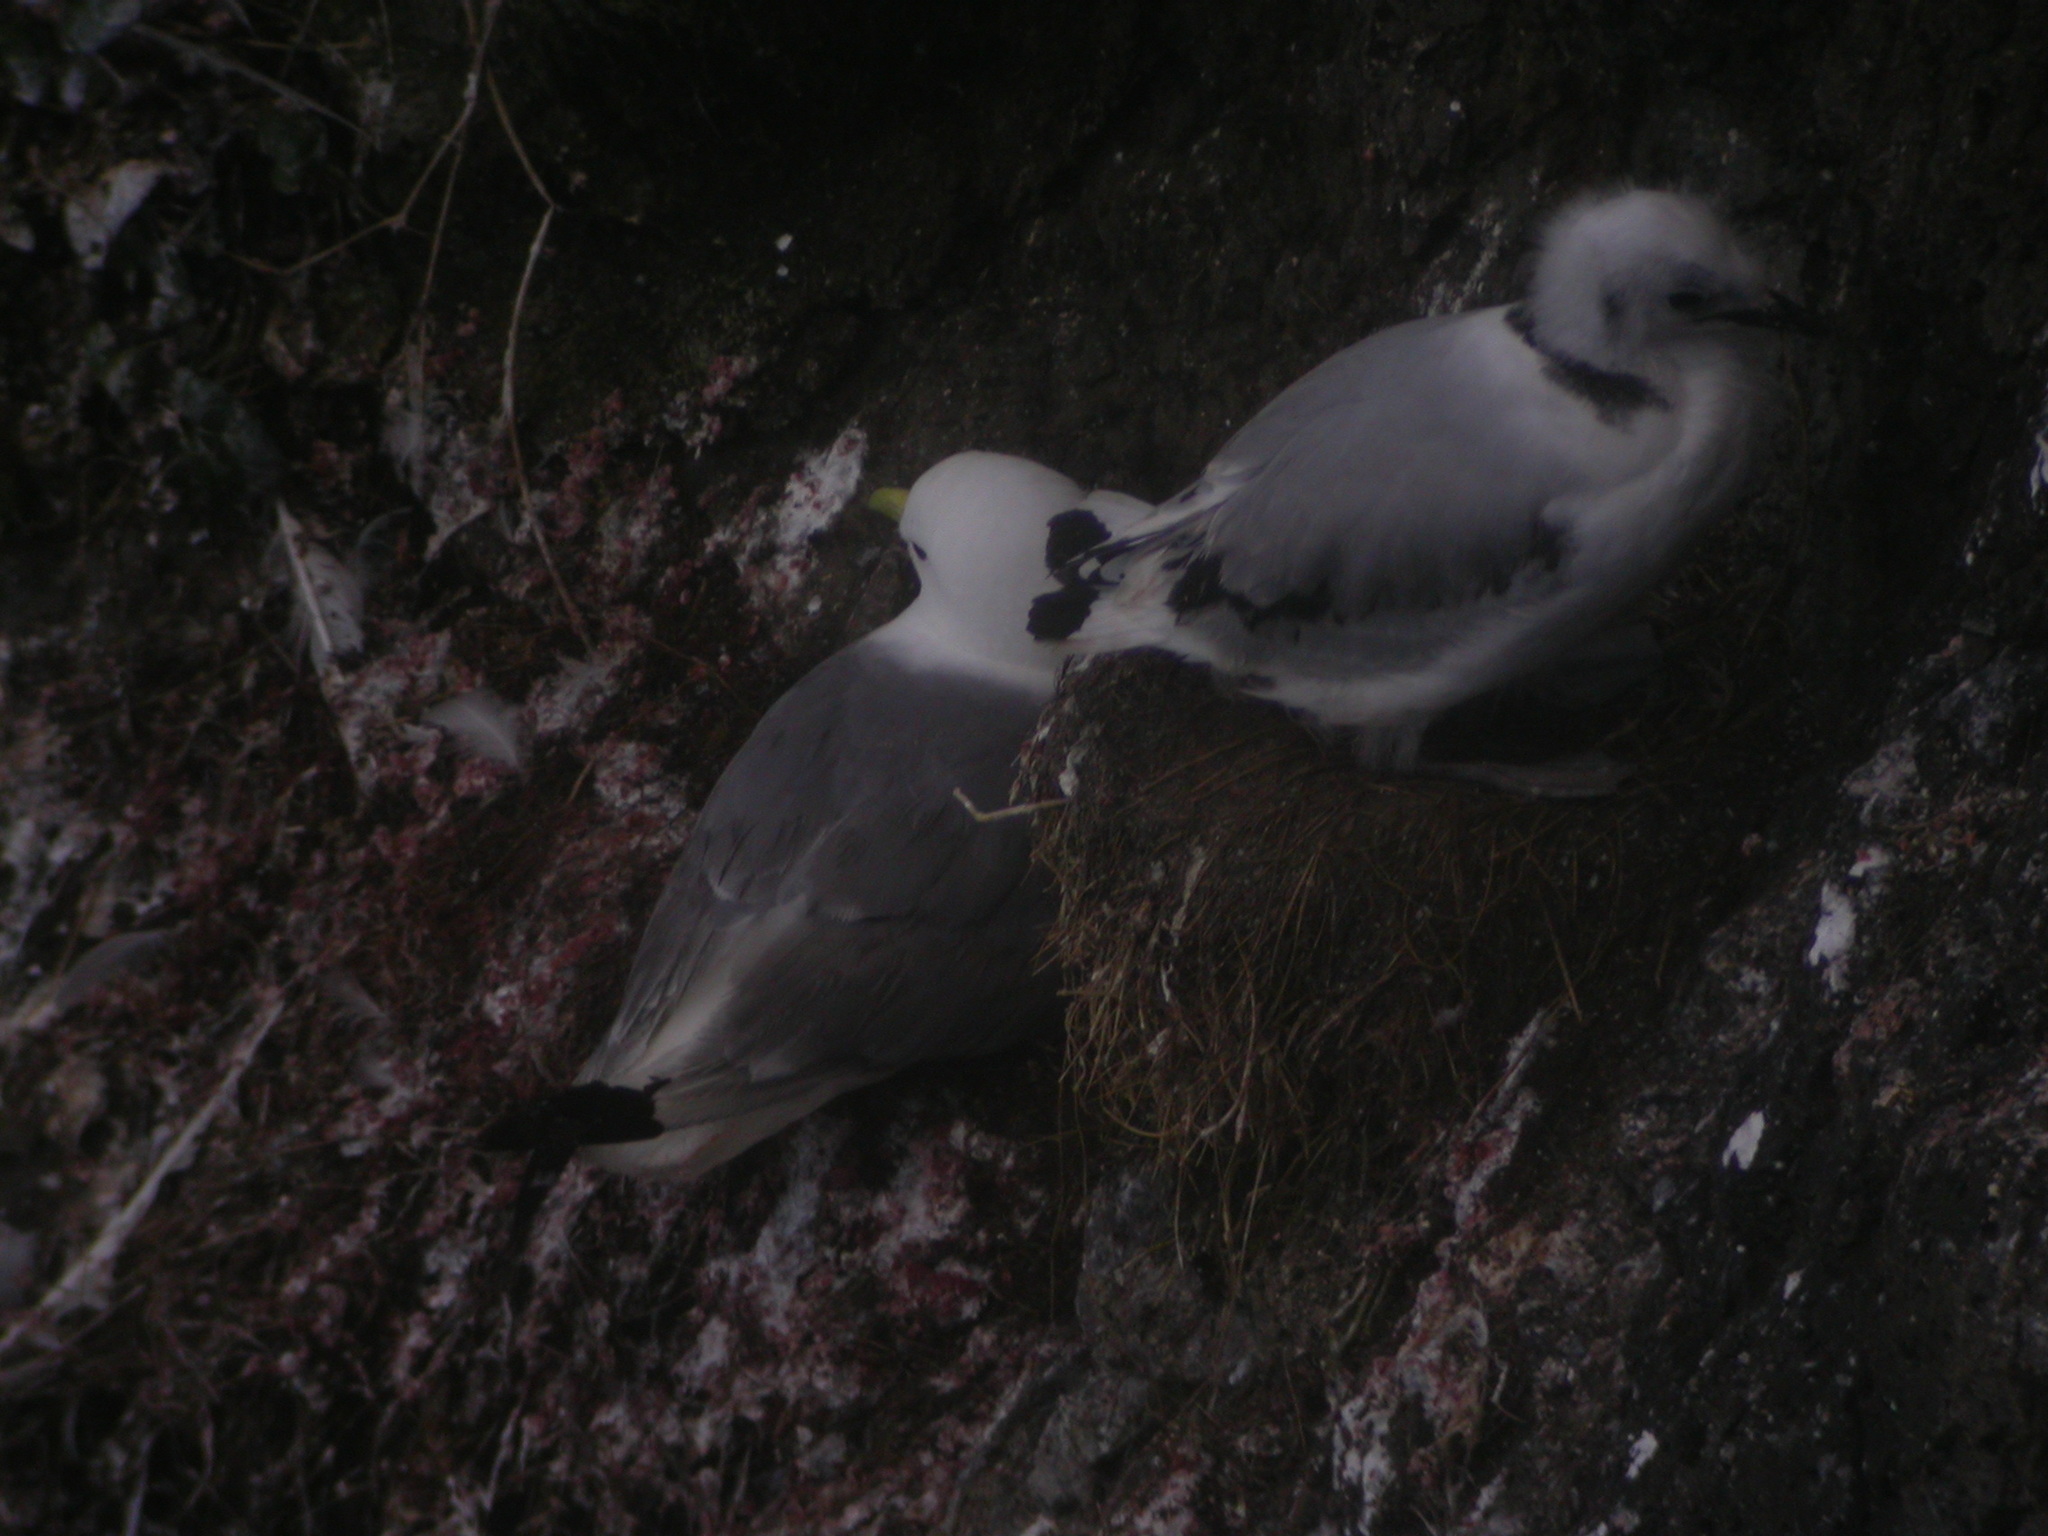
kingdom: Animalia
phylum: Chordata
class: Aves
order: Charadriiformes
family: Laridae
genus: Rissa
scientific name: Rissa tridactyla
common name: Black-legged kittiwake
